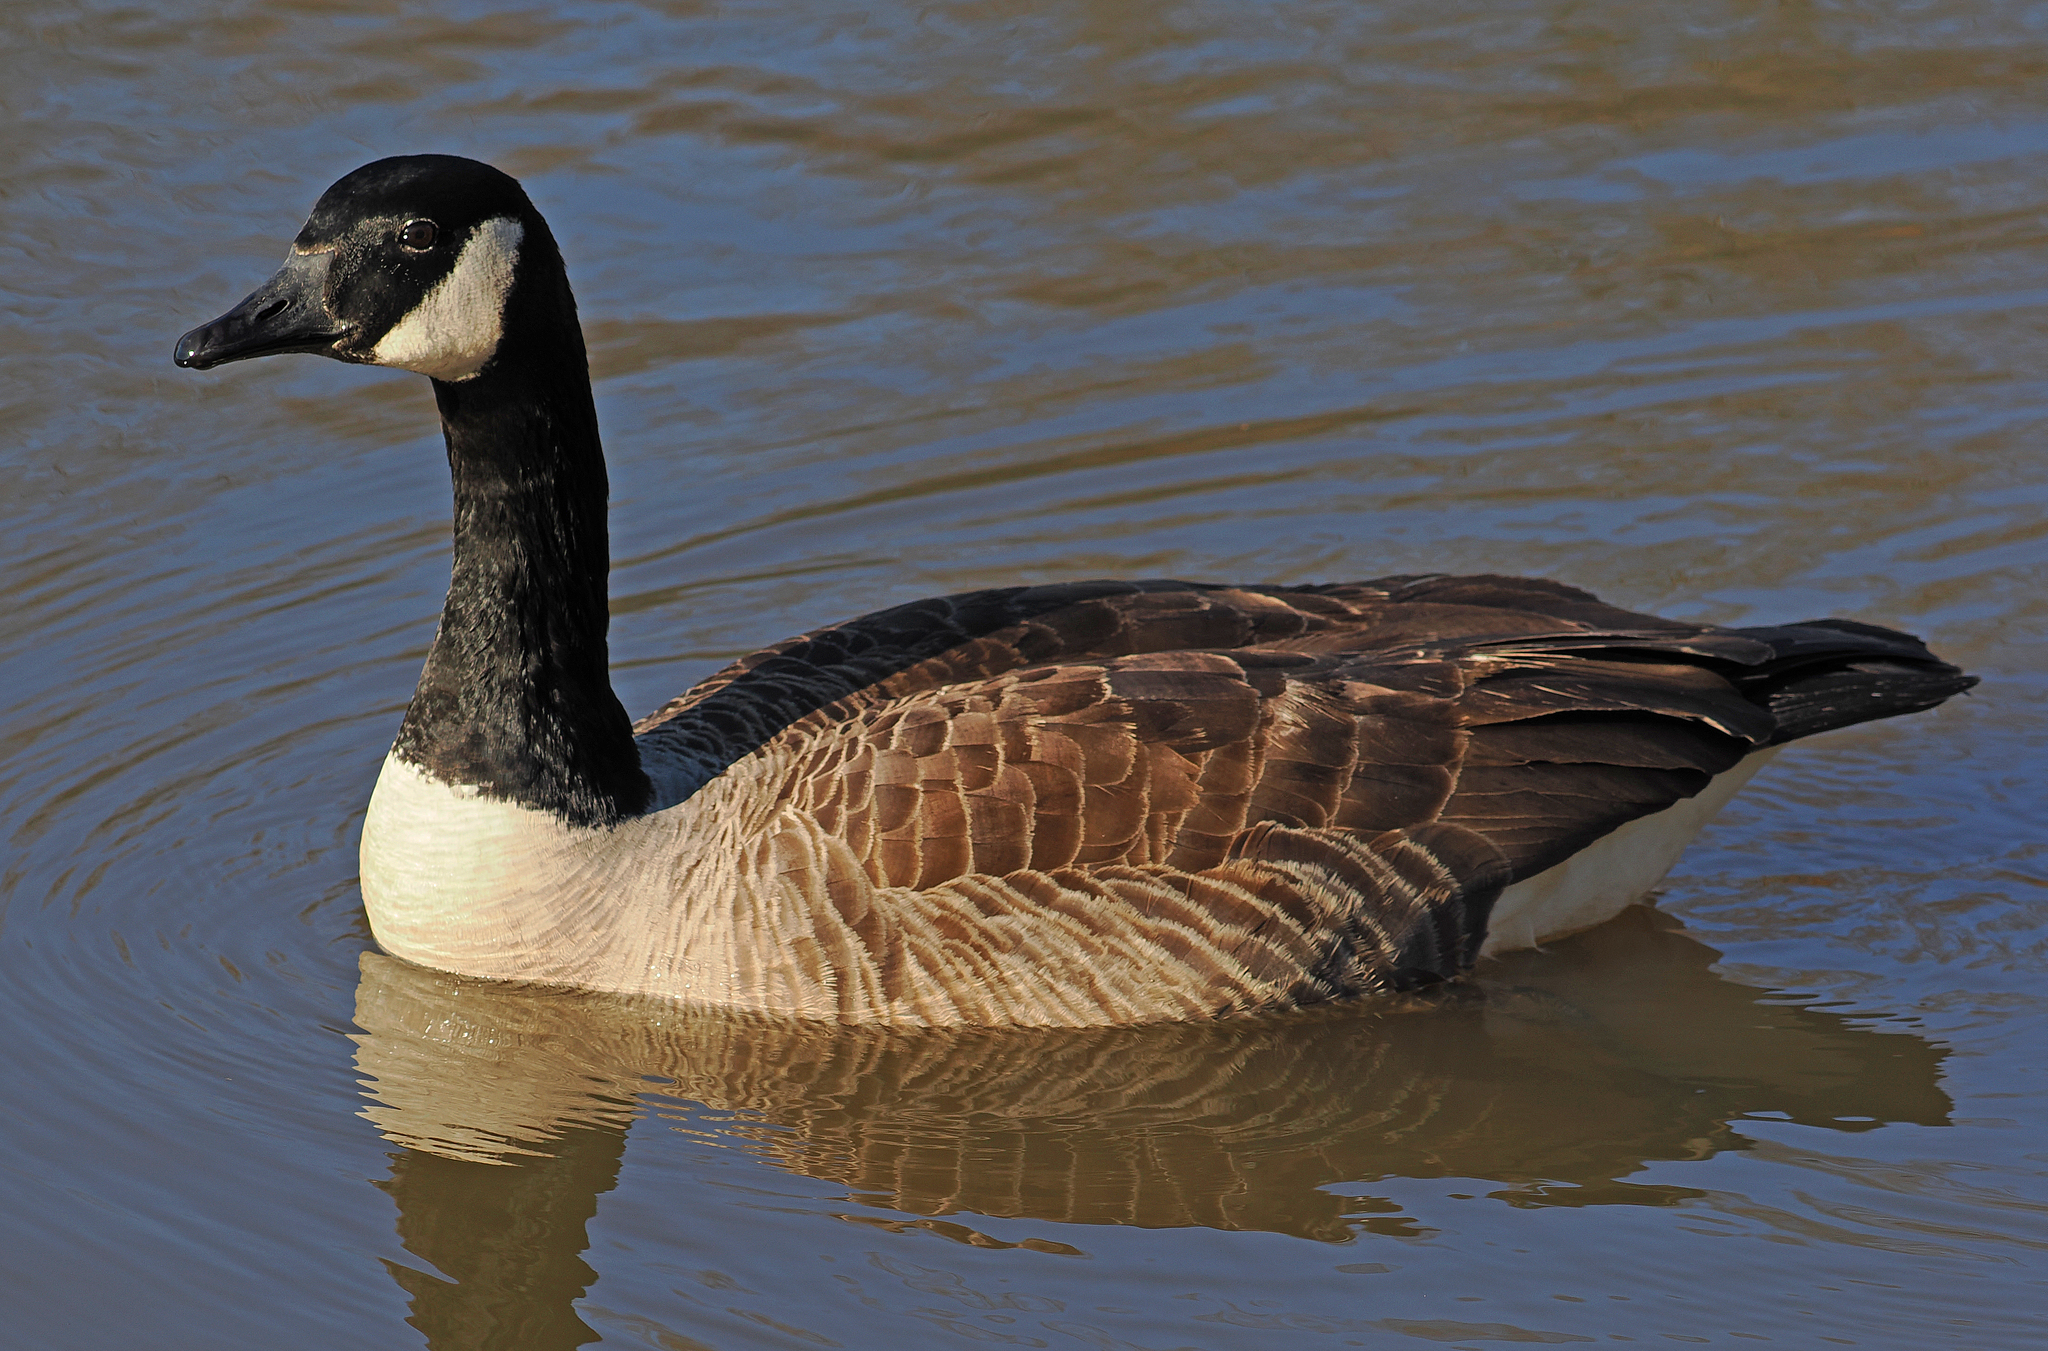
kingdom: Animalia
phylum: Chordata
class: Aves
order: Anseriformes
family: Anatidae
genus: Branta
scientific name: Branta canadensis
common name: Canada goose
